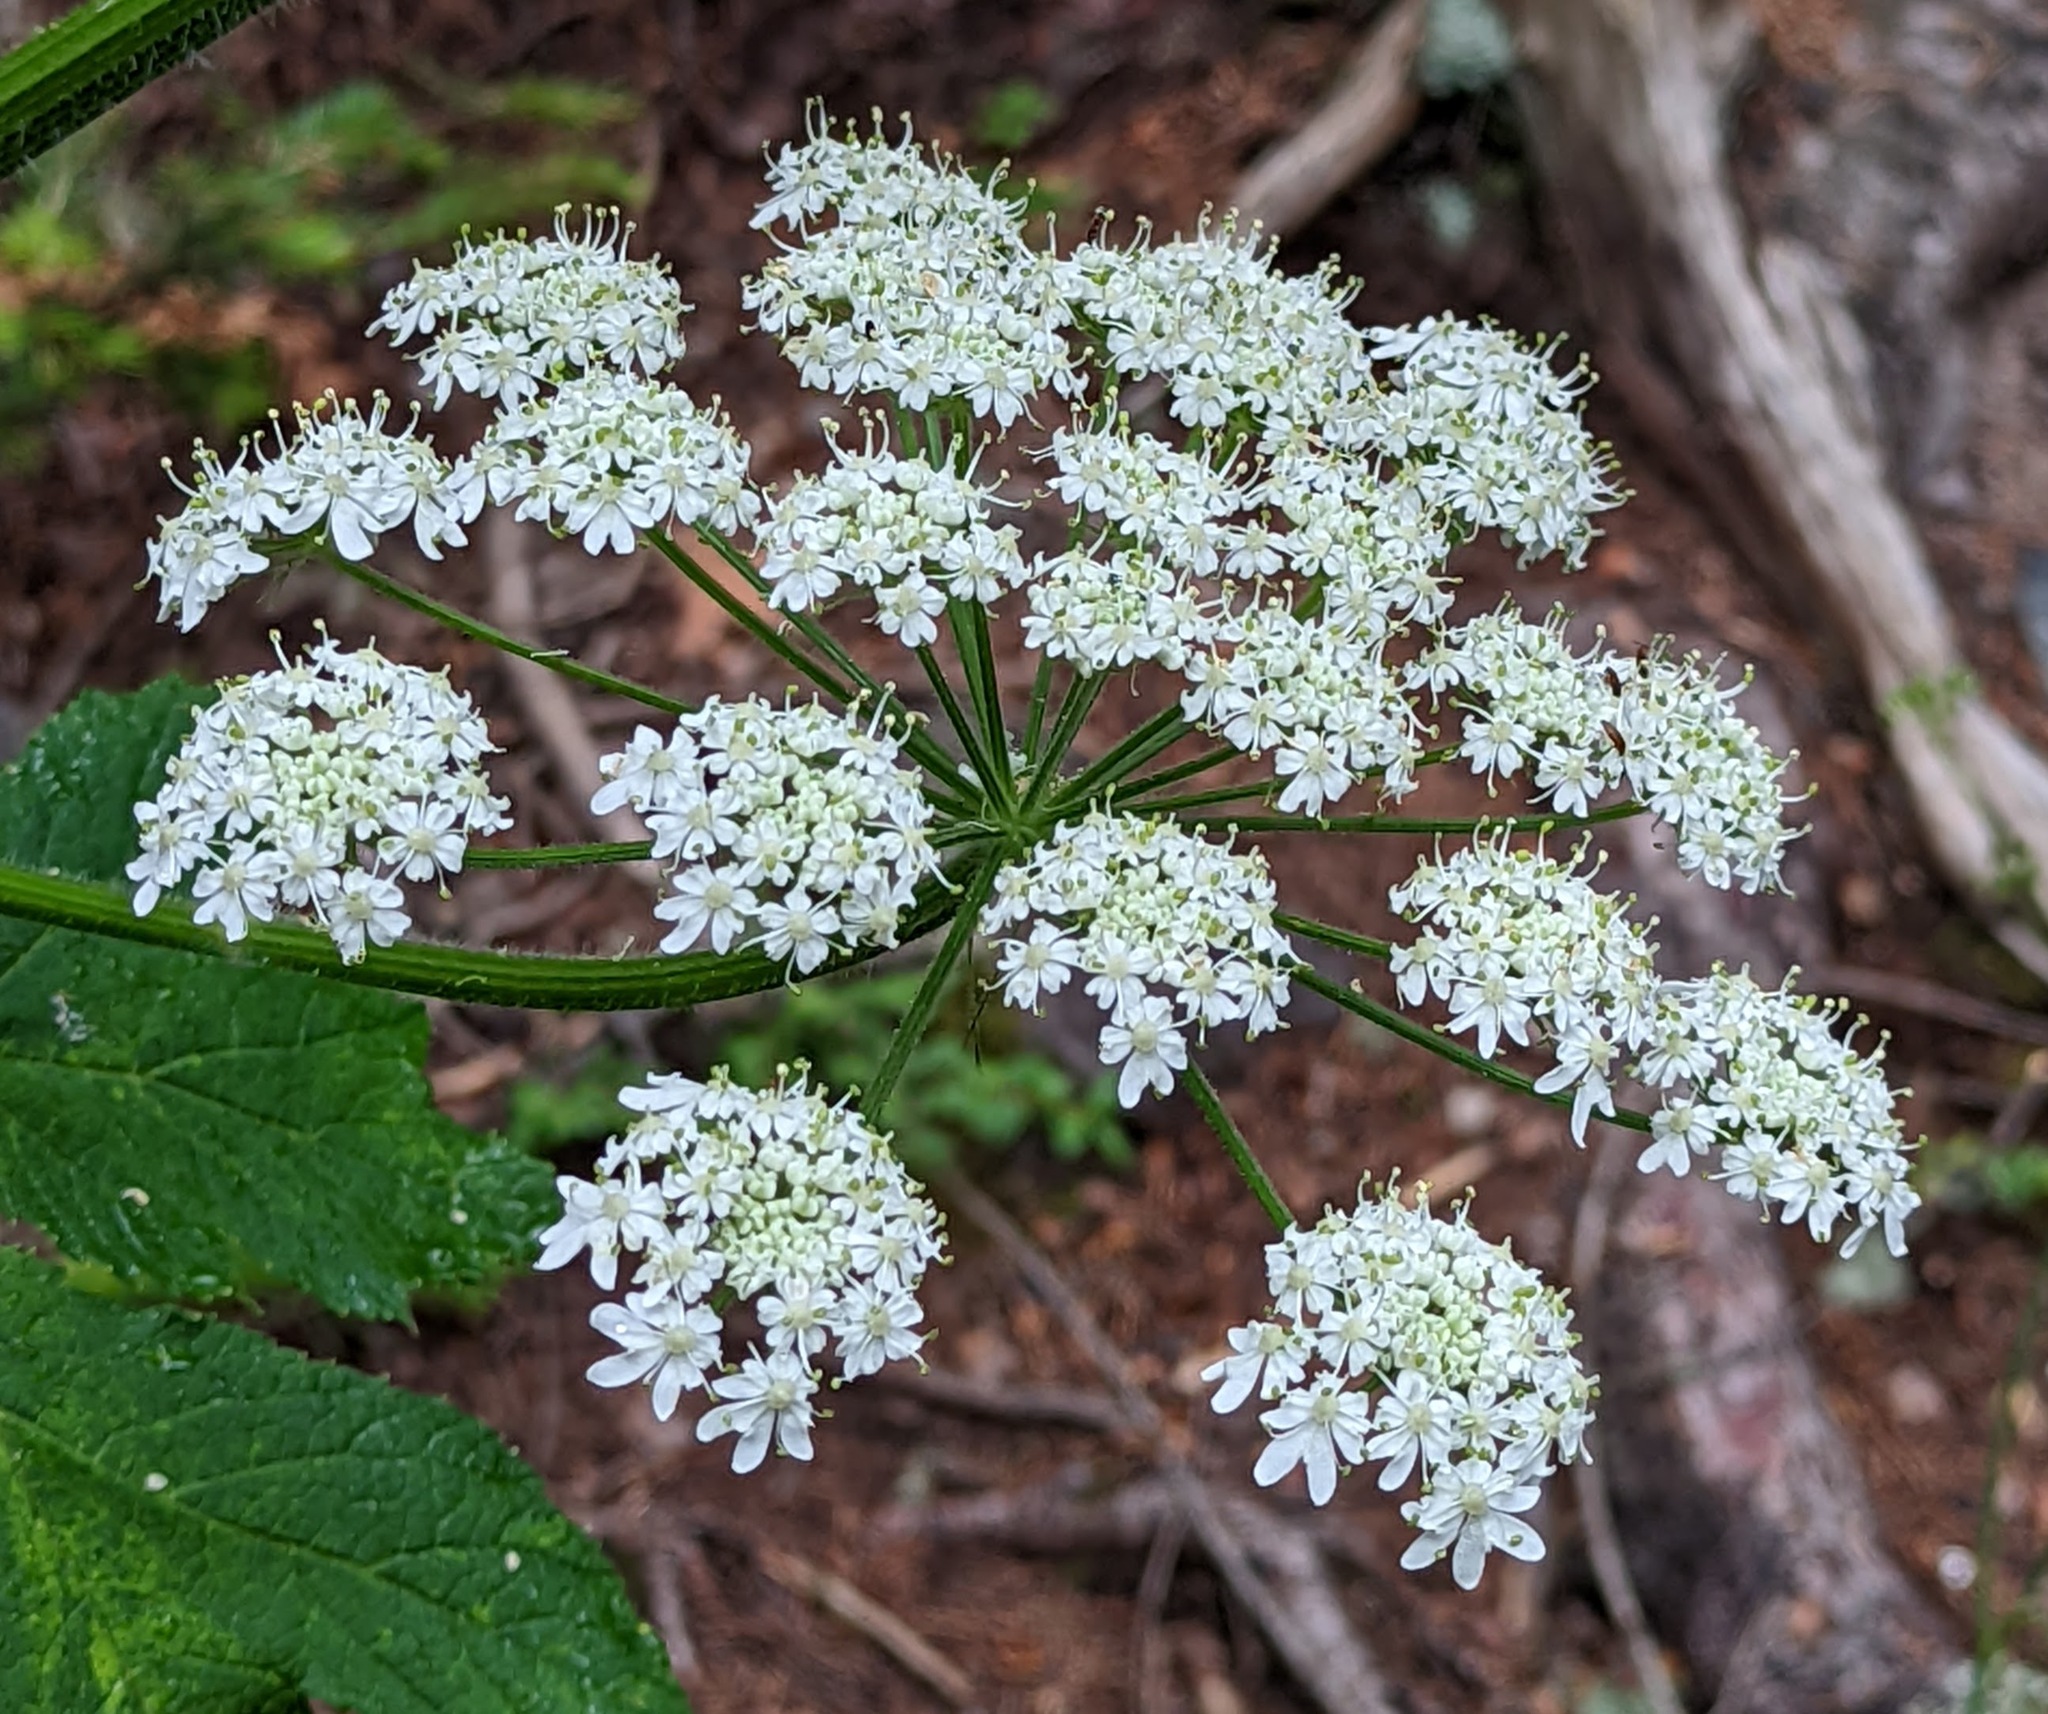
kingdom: Plantae
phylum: Tracheophyta
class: Magnoliopsida
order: Apiales
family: Apiaceae
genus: Heracleum
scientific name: Heracleum maximum
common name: American cow parsnip
